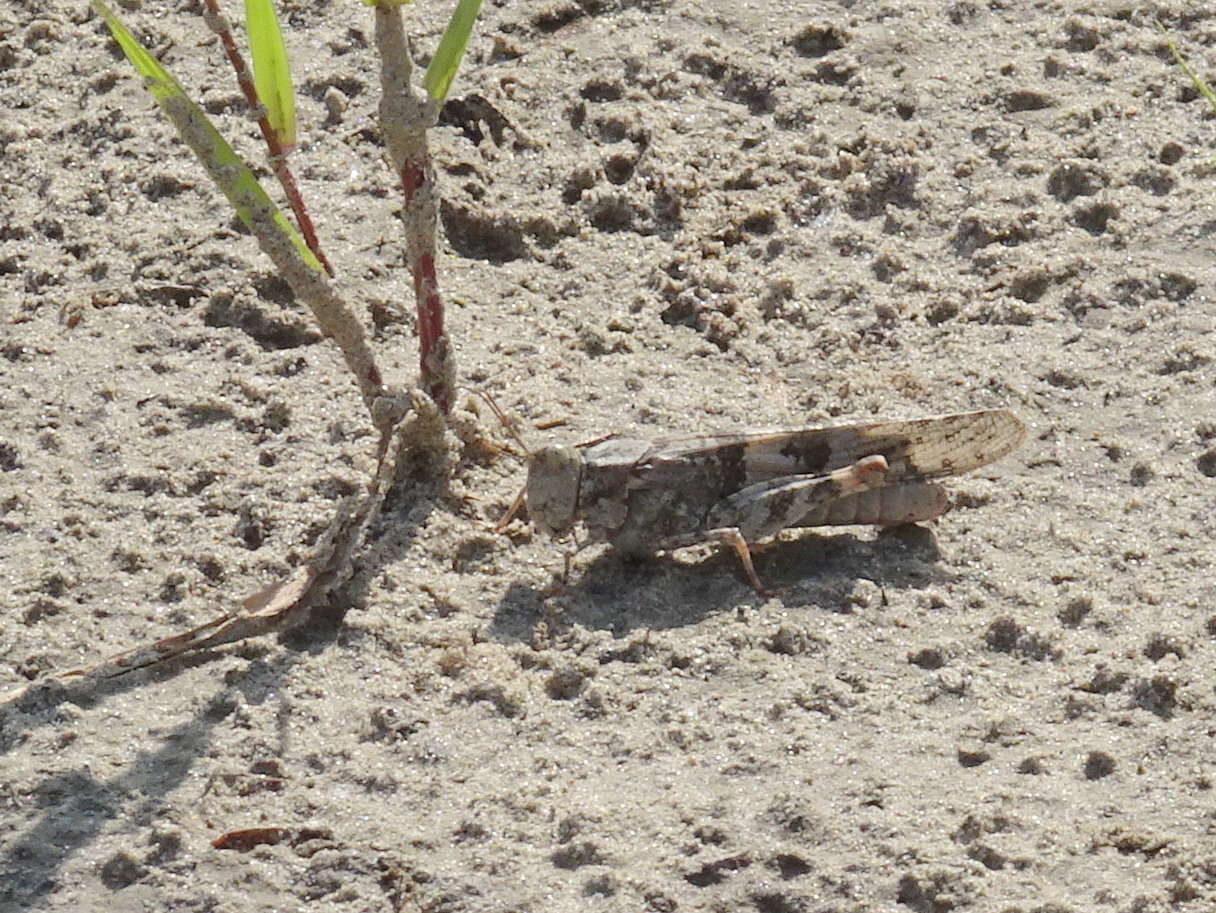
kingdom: Animalia
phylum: Arthropoda
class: Insecta
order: Orthoptera
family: Acrididae
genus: Trimerotropis
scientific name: Trimerotropis pallidipennis
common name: Pallid-winged grasshopper
